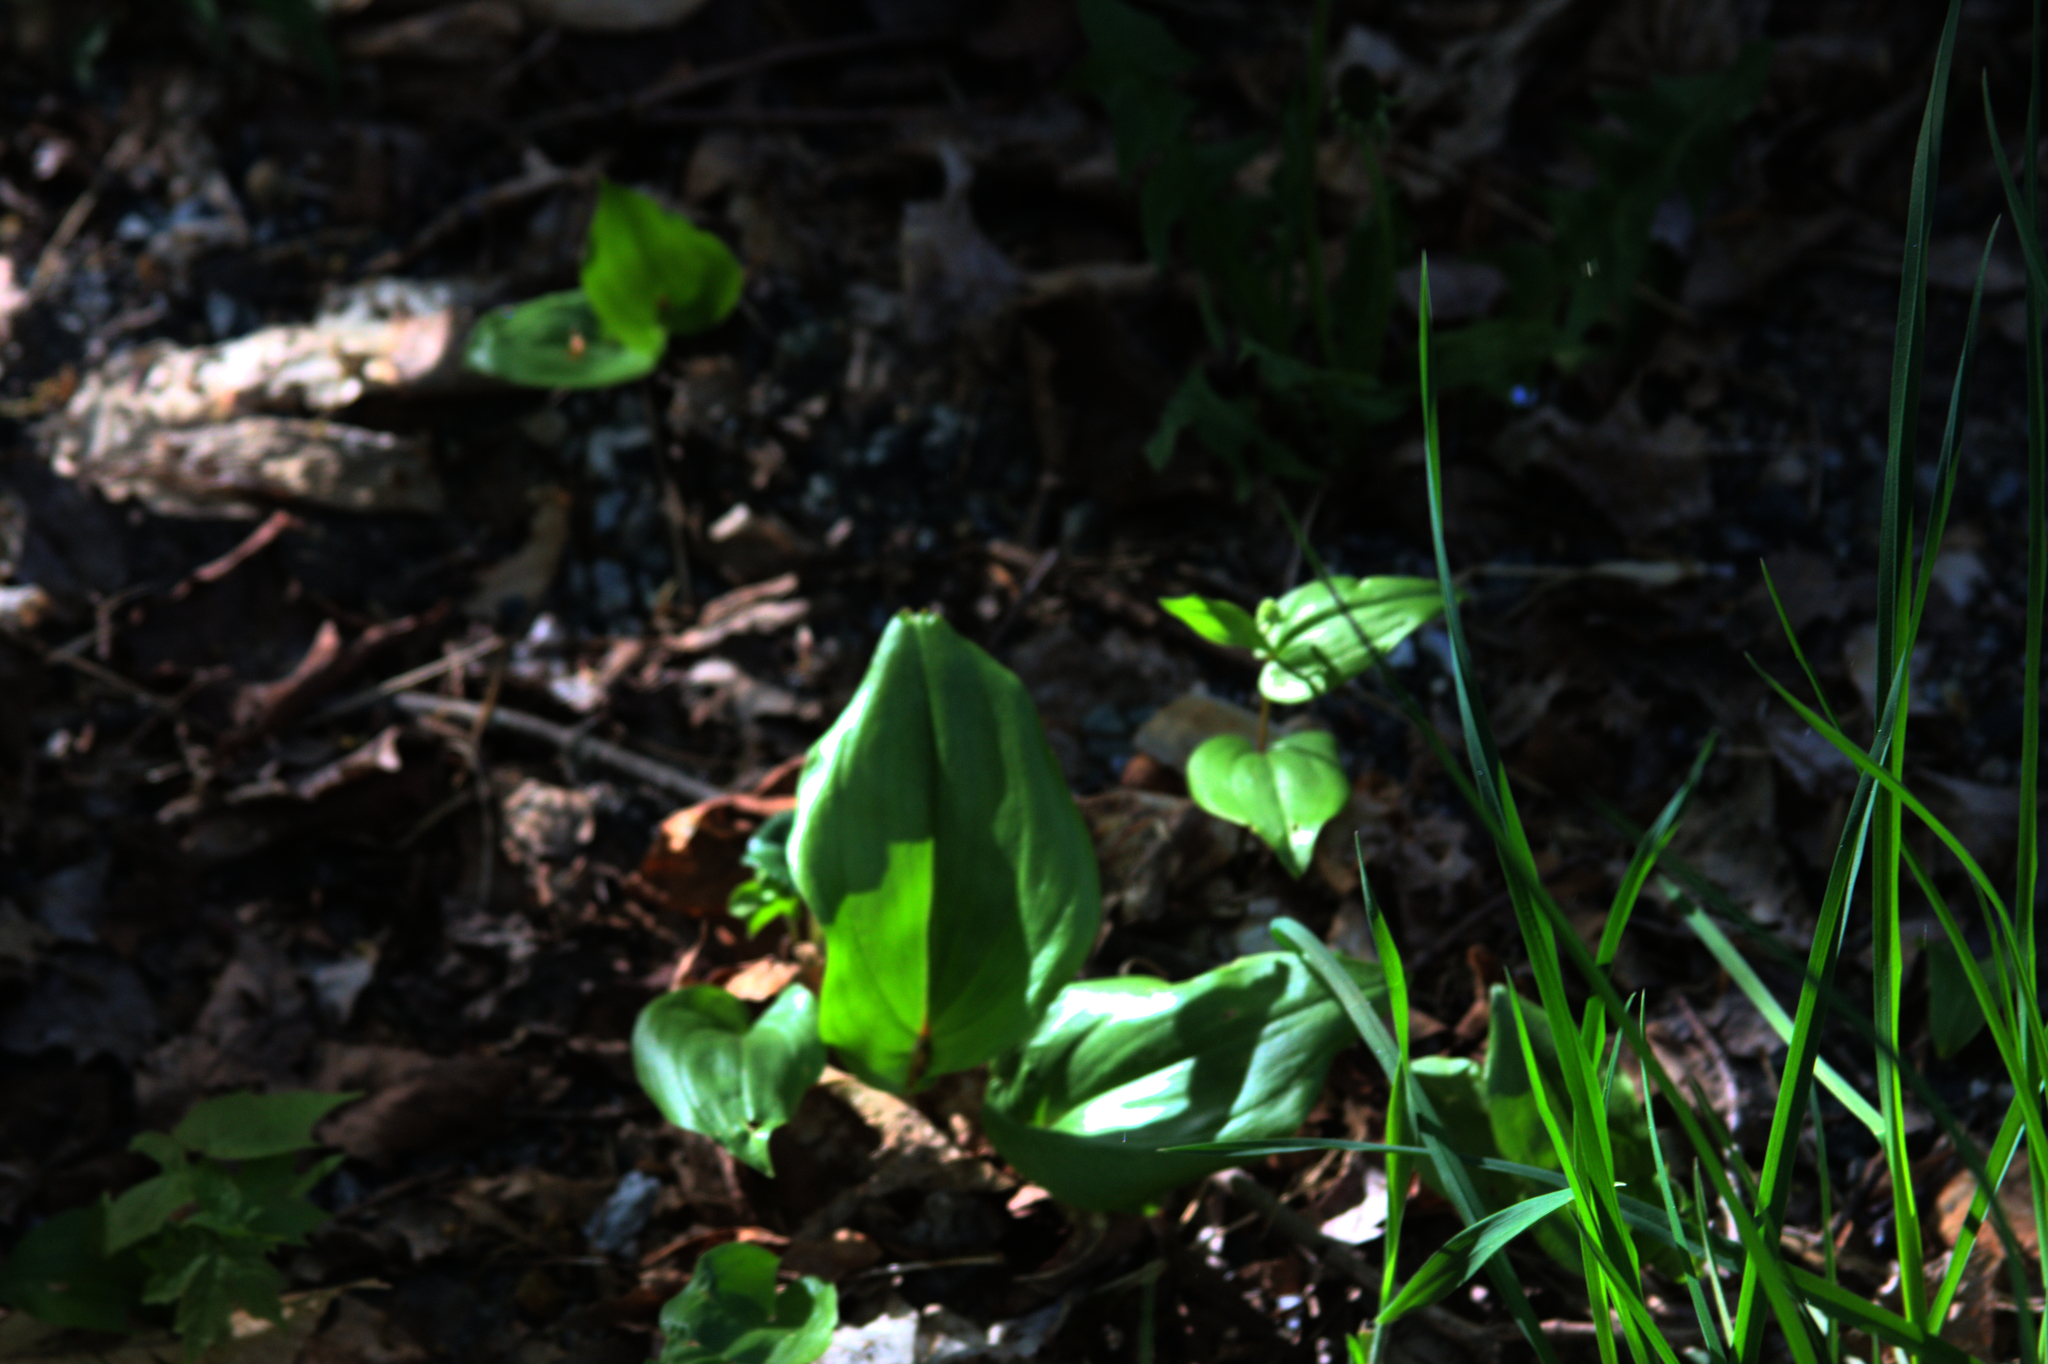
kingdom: Plantae
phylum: Tracheophyta
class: Liliopsida
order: Asparagales
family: Asparagaceae
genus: Maianthemum
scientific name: Maianthemum canadense
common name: False lily-of-the-valley
